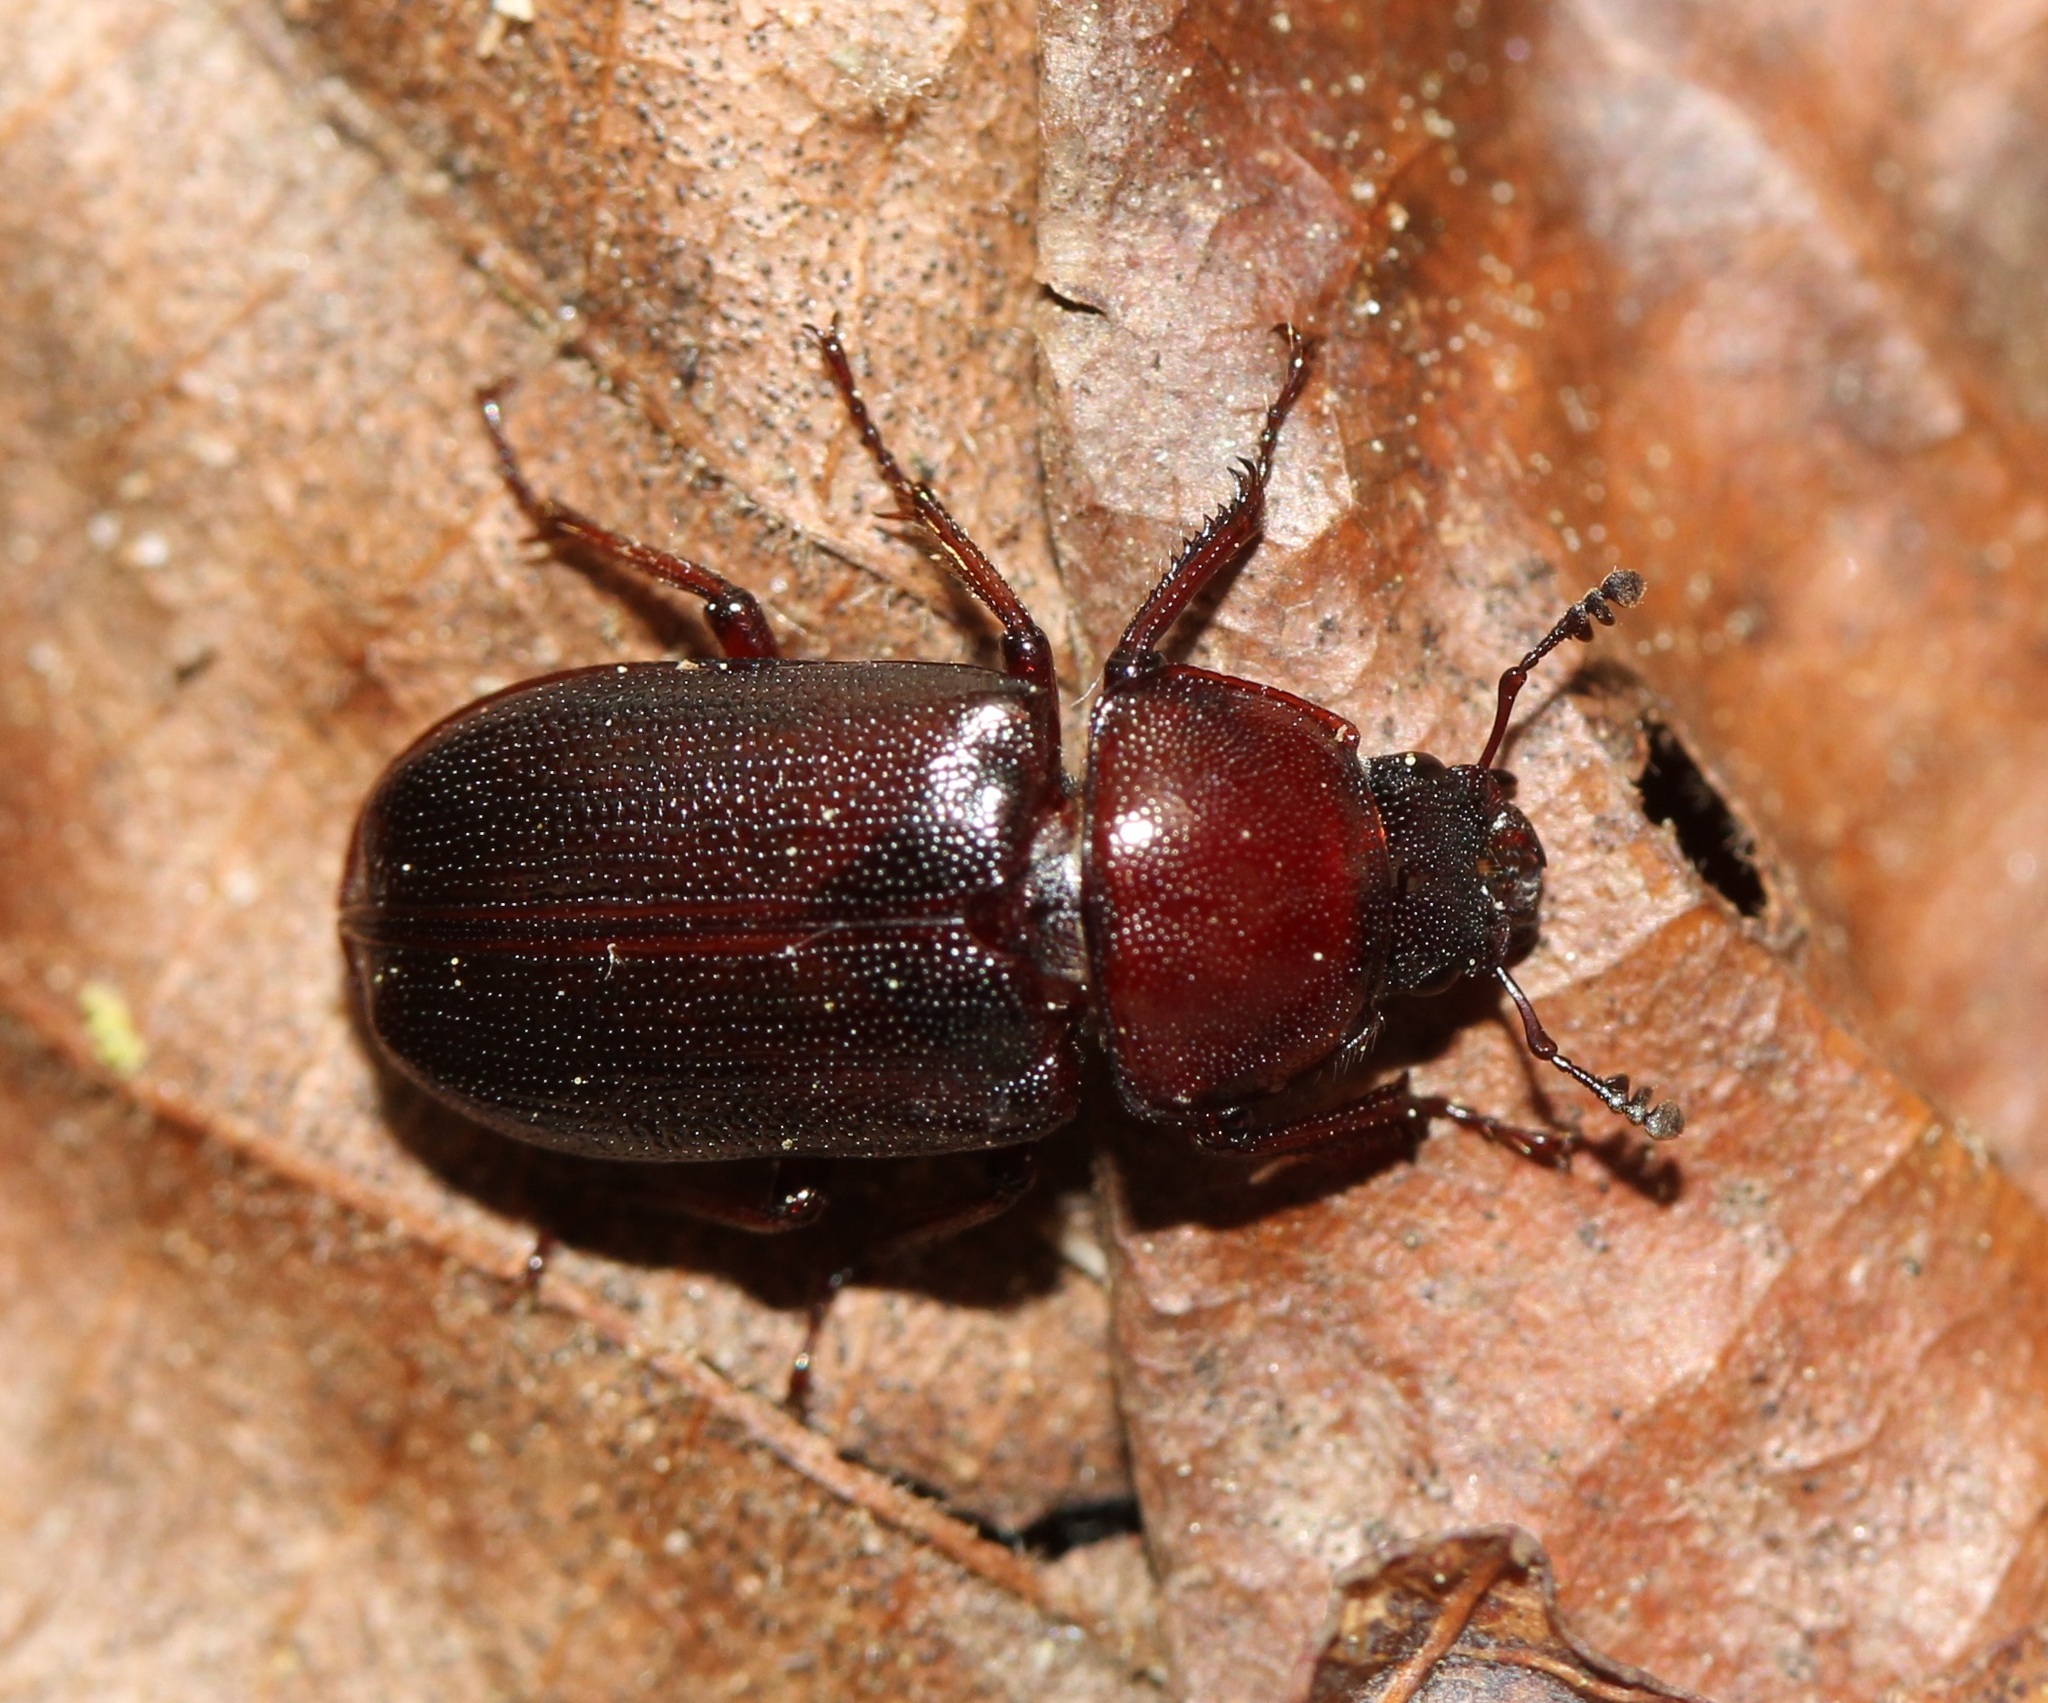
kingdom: Animalia
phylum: Arthropoda
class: Insecta
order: Coleoptera
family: Lucanidae
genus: Platycerus
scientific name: Platycerus quercus
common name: Oak stag beetle
